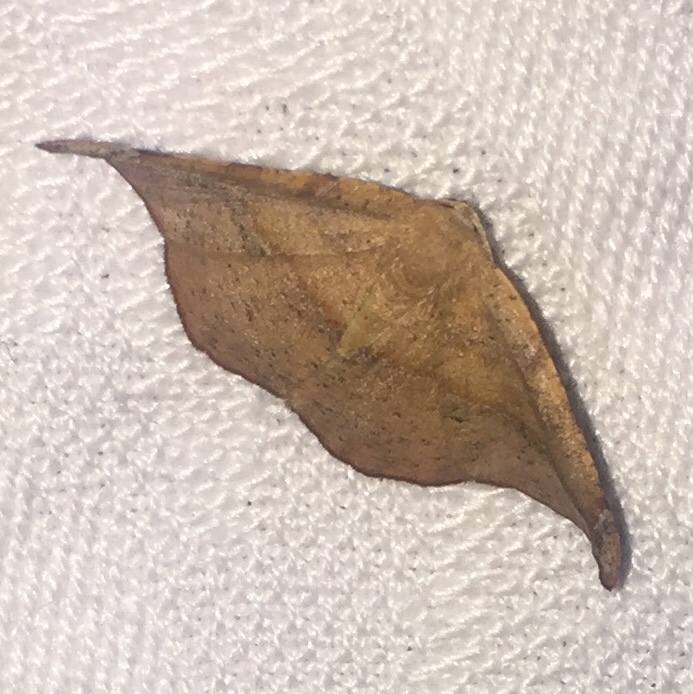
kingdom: Animalia
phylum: Arthropoda
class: Insecta
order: Lepidoptera
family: Geometridae
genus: Patalene
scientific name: Patalene olyzonaria
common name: Juniper geometer moth
